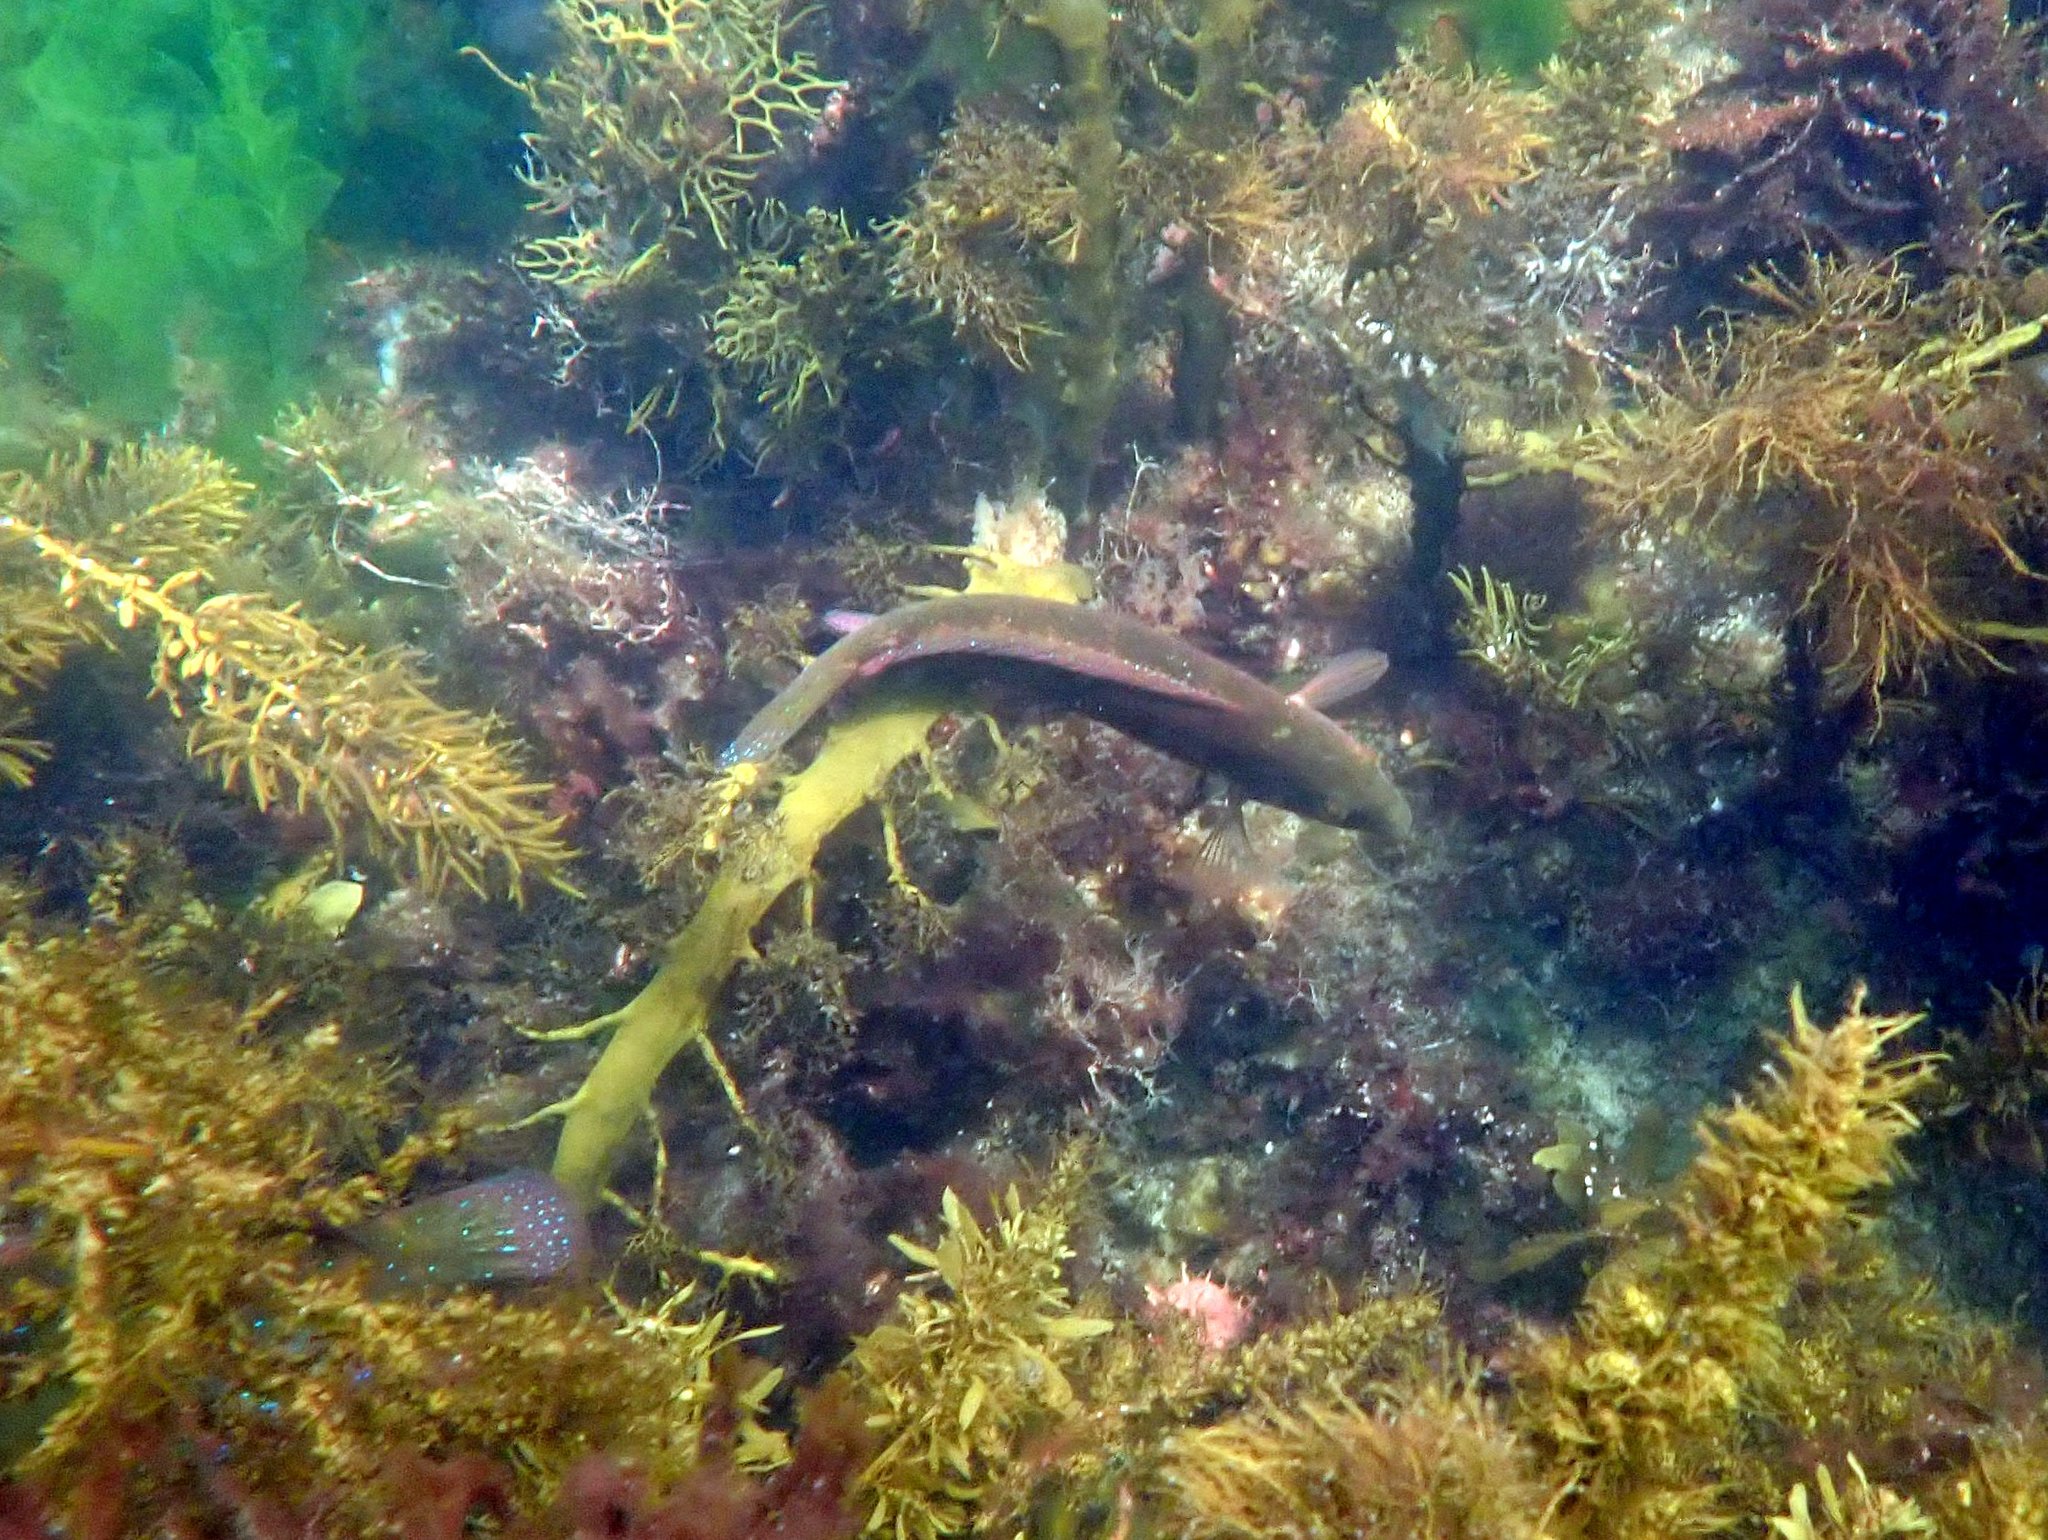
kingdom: Animalia
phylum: Chordata
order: Perciformes
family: Labridae
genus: Pictilabrus
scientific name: Pictilabrus laticlavius
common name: Patrician wrasse
